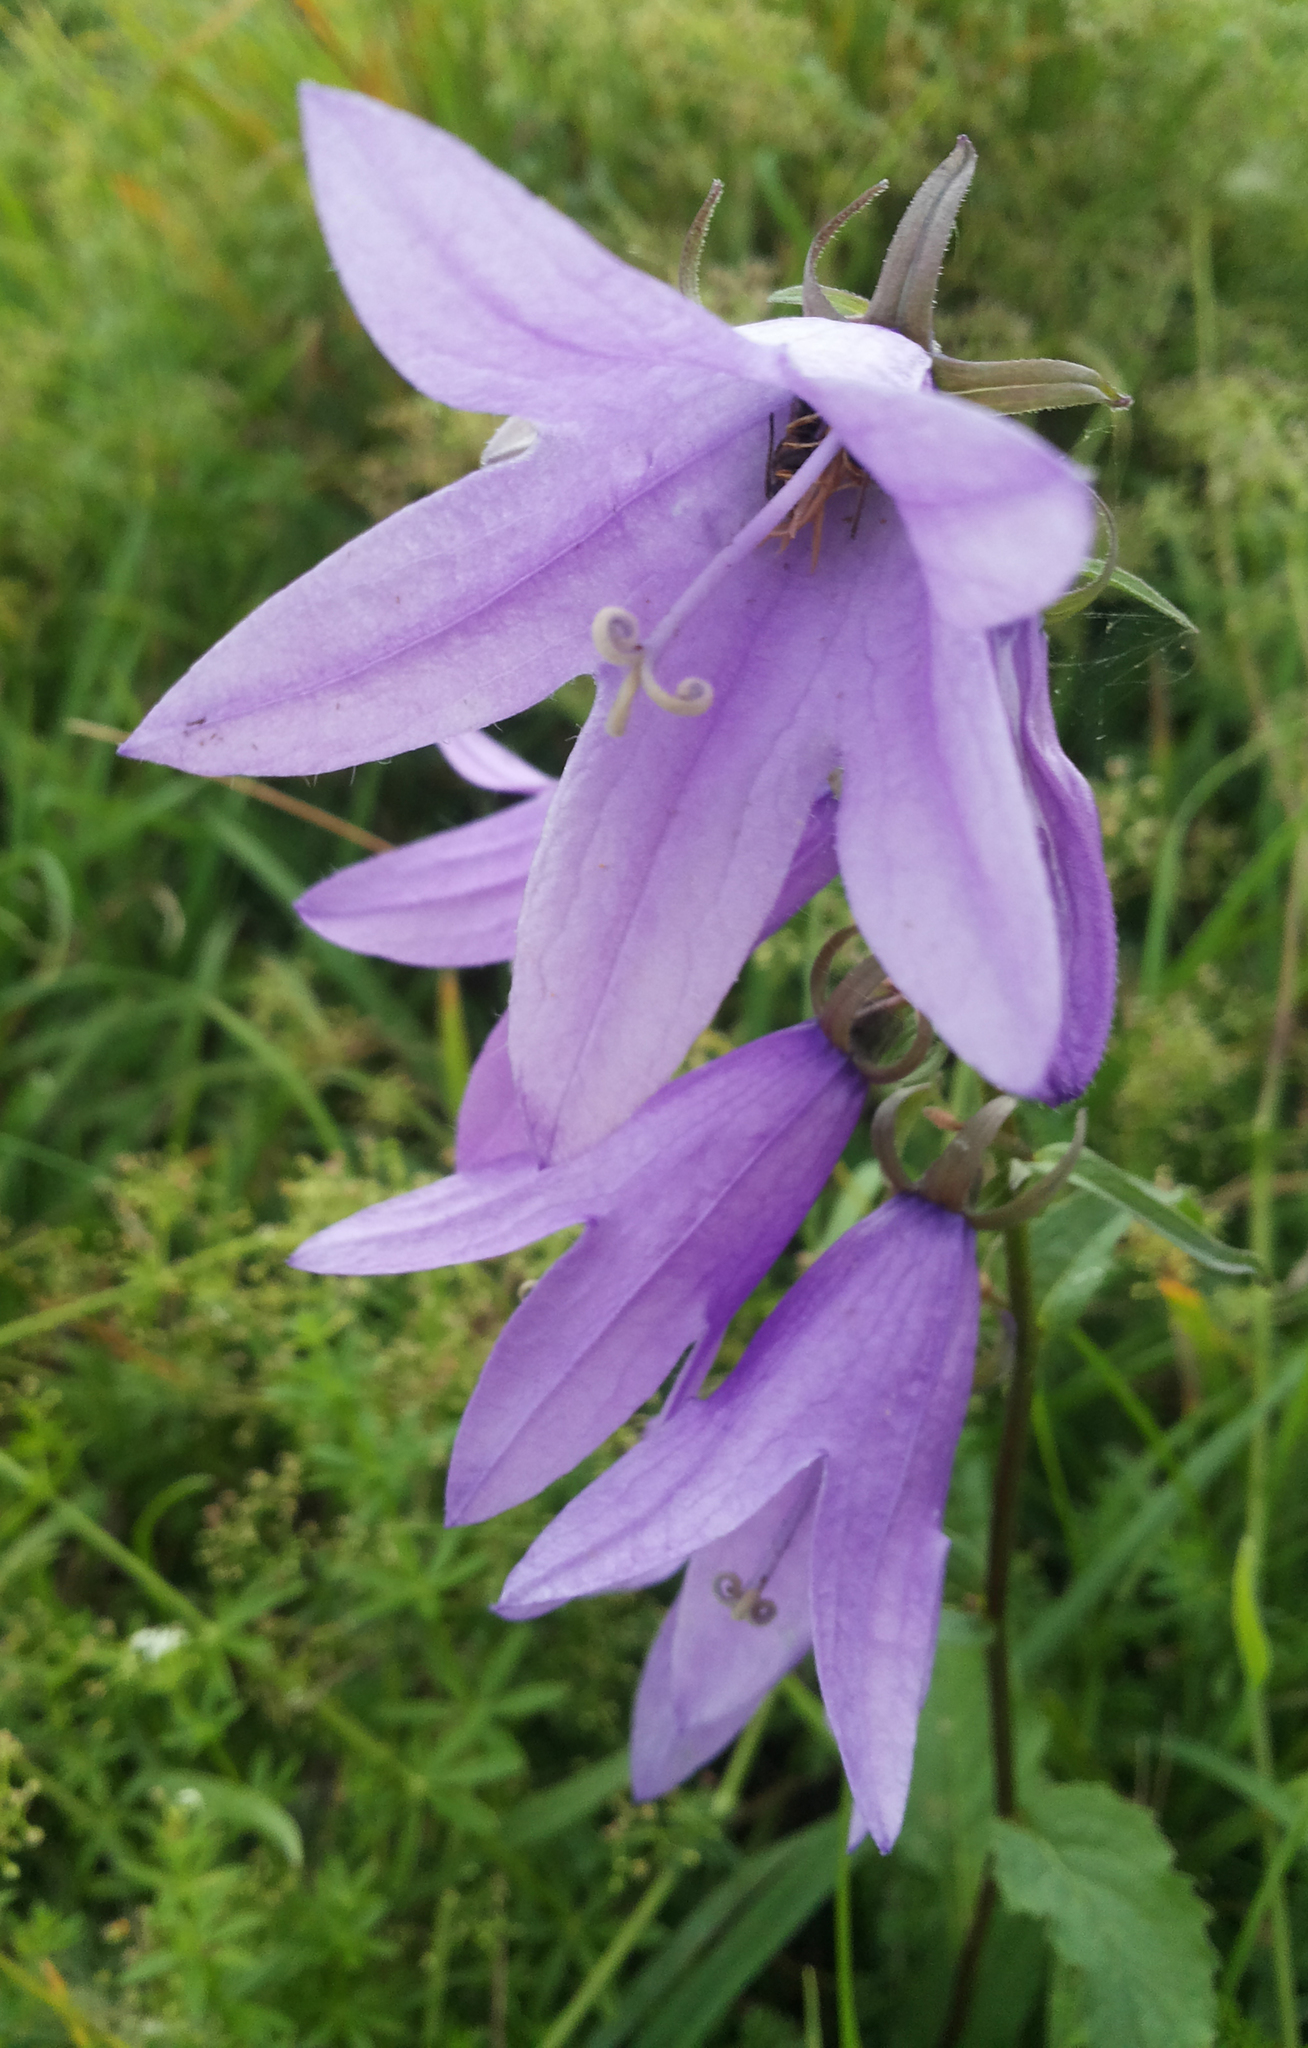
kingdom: Plantae
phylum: Tracheophyta
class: Magnoliopsida
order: Asterales
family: Campanulaceae
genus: Campanula
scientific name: Campanula rapunculoides
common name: Creeping bellflower
